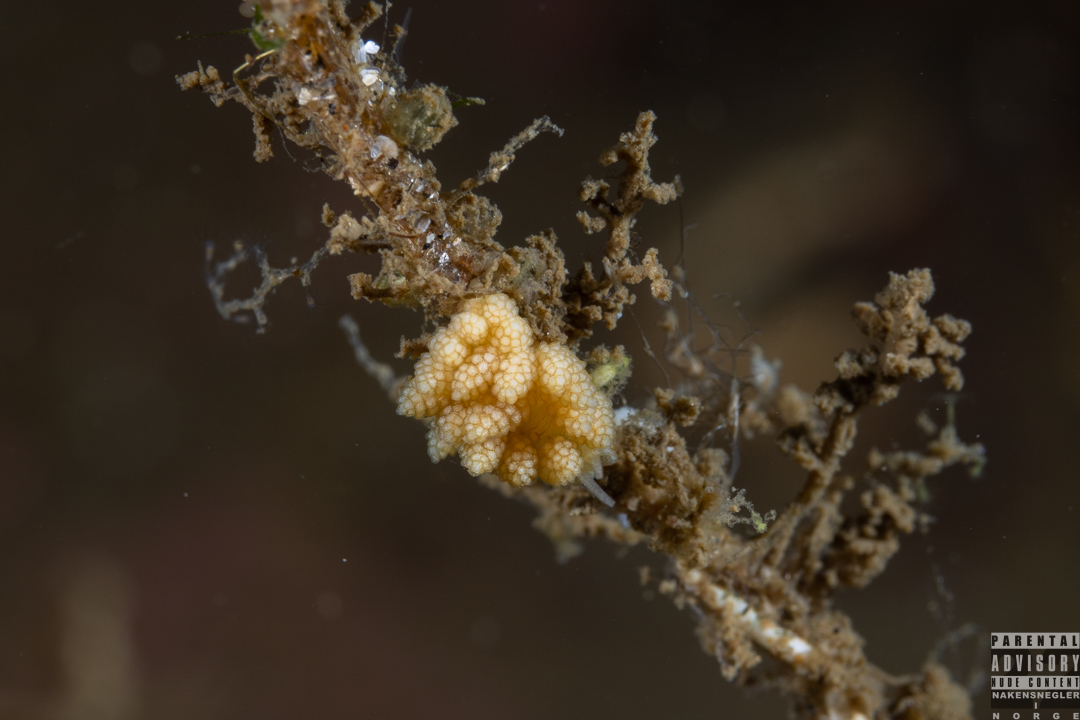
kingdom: Animalia
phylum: Mollusca
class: Gastropoda
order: Nudibranchia
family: Dotidae
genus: Doto
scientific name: Doto fragilis
